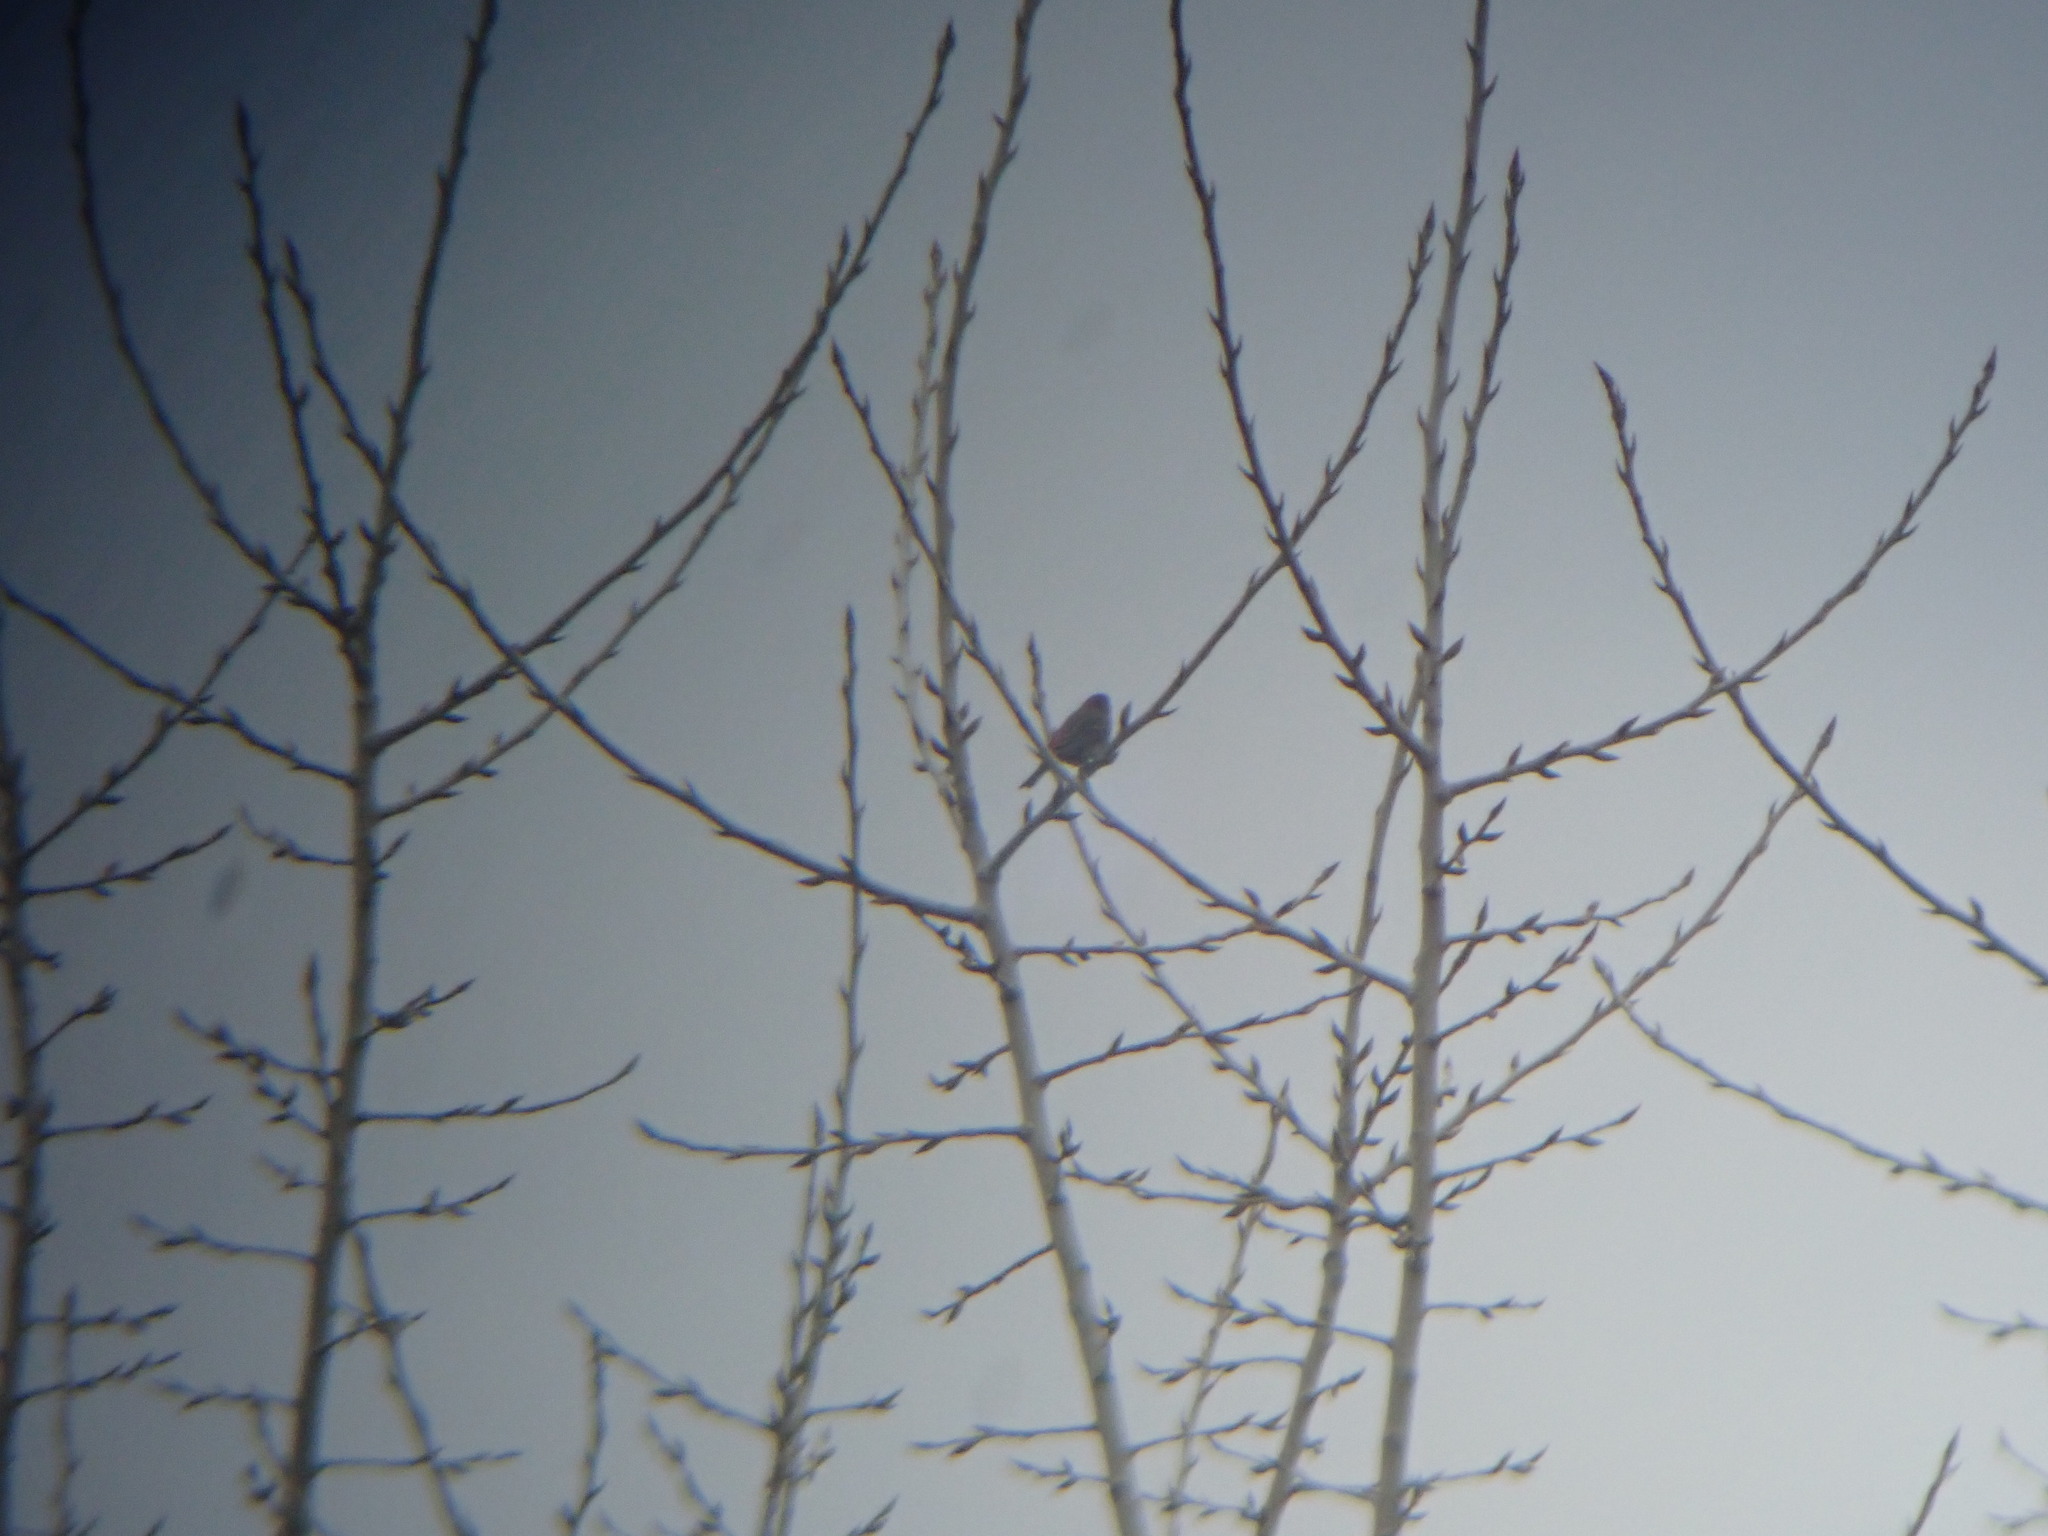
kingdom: Animalia
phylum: Chordata
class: Aves
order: Passeriformes
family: Fringillidae
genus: Haemorhous
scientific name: Haemorhous mexicanus
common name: House finch
